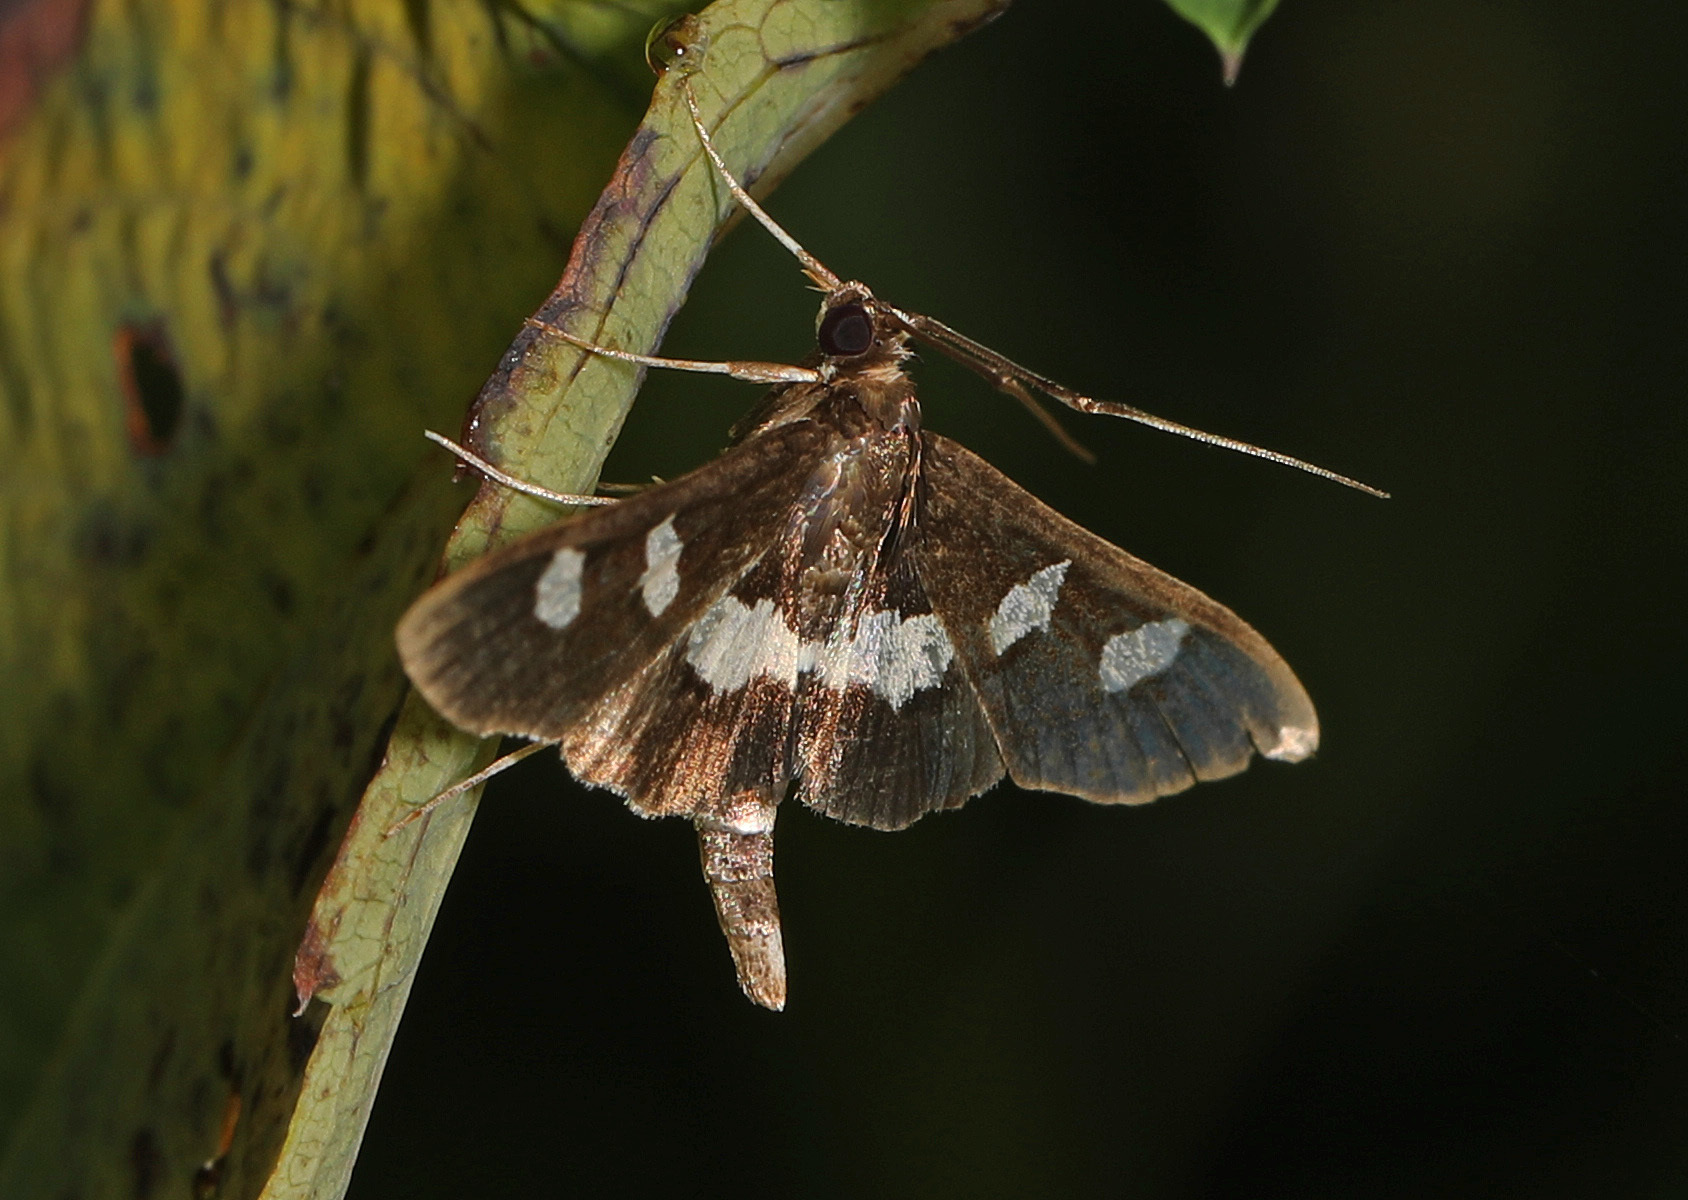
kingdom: Animalia
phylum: Arthropoda
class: Insecta
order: Lepidoptera
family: Crambidae
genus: Desmia
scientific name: Desmia
